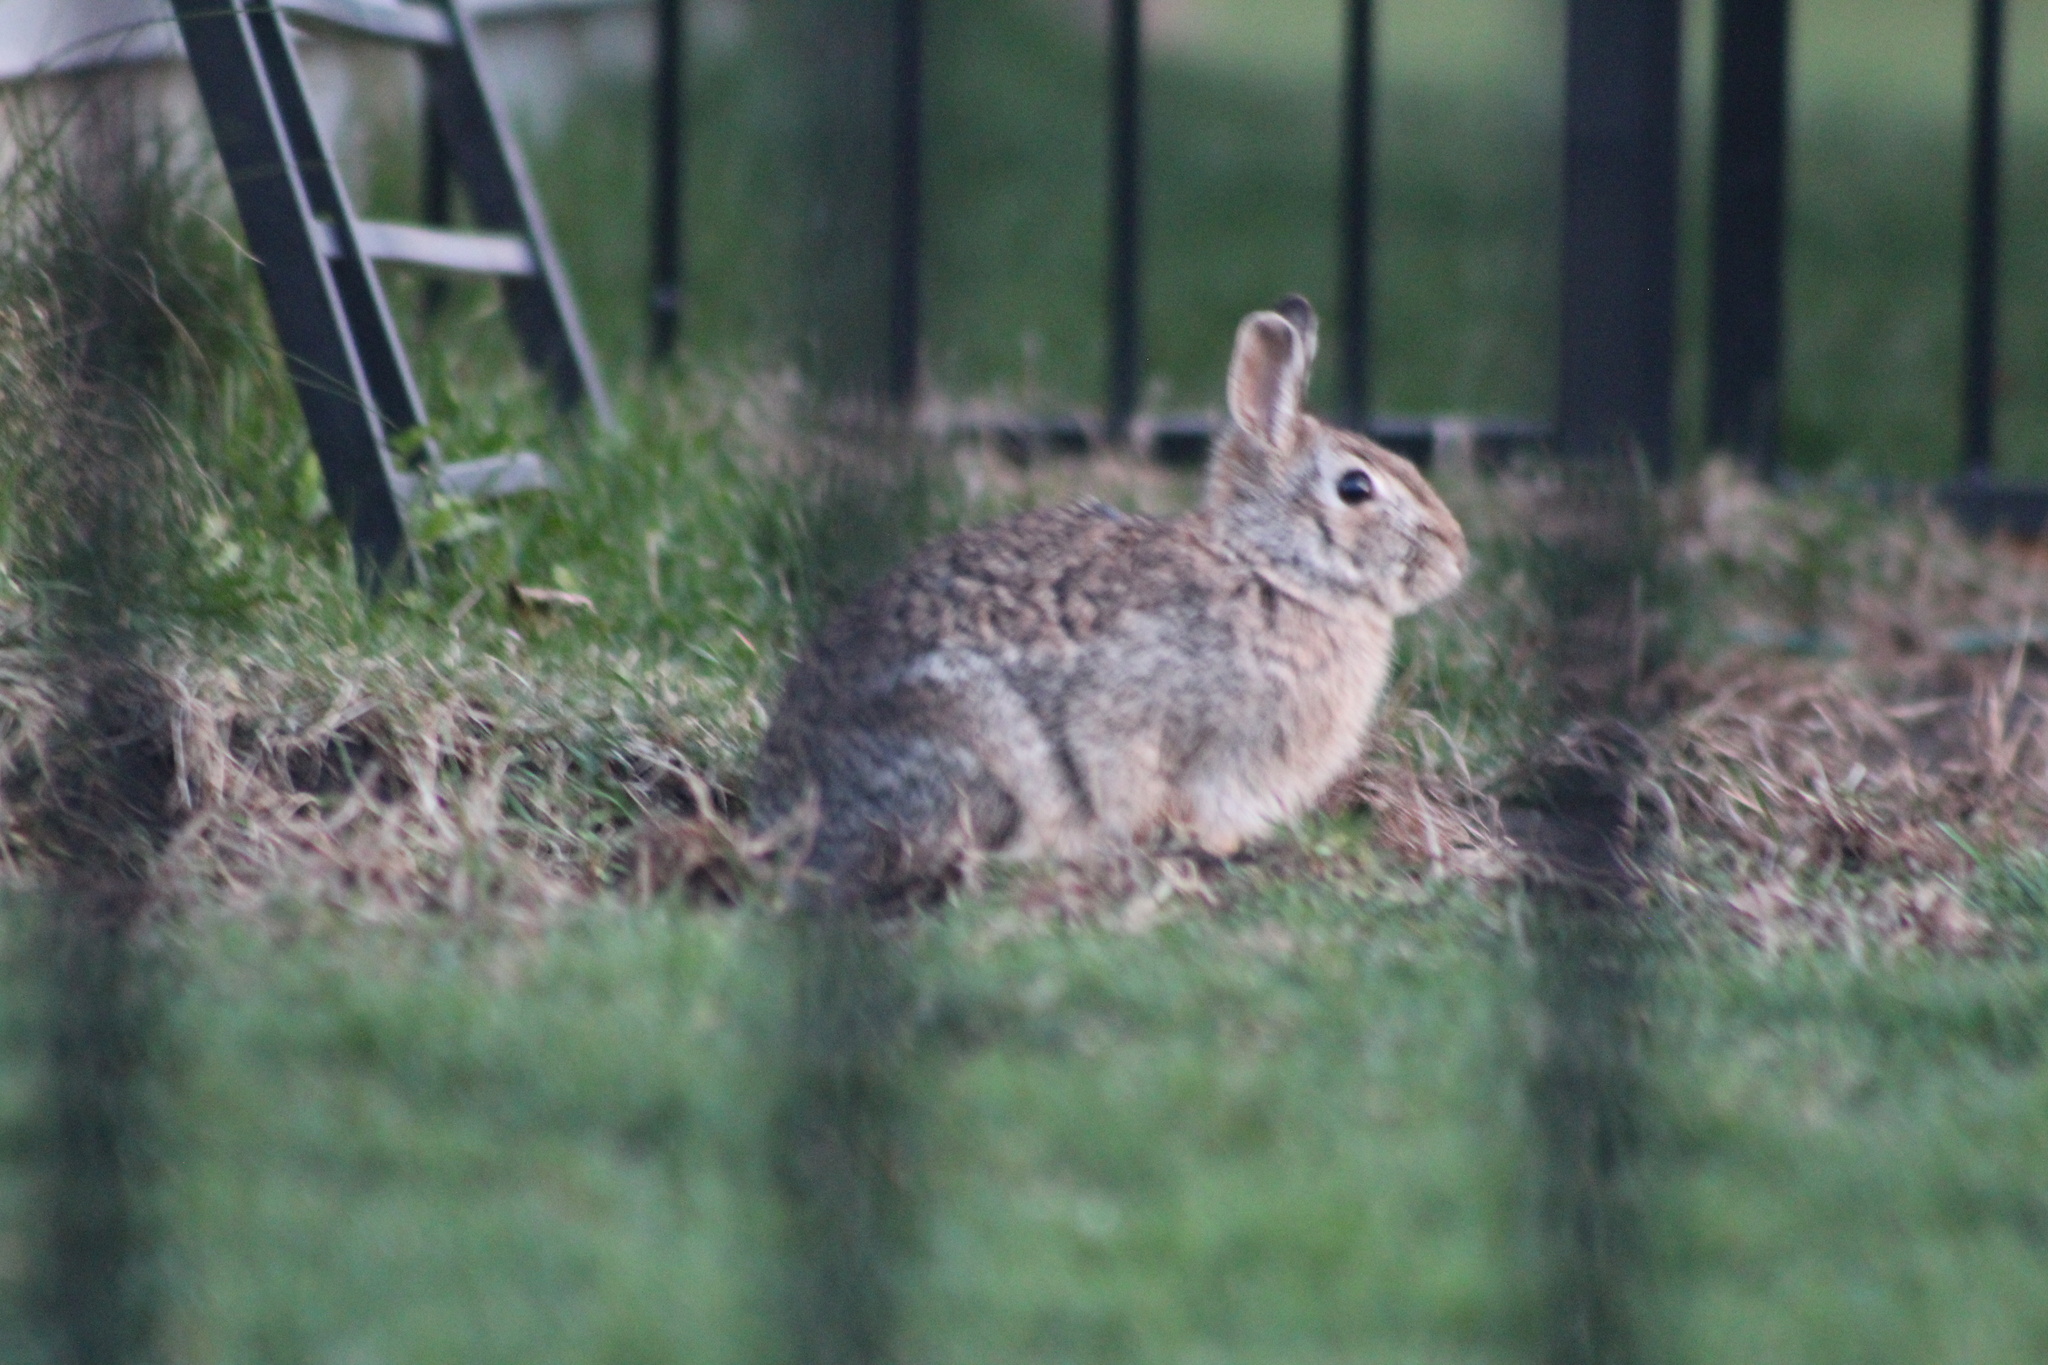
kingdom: Animalia
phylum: Chordata
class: Mammalia
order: Lagomorpha
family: Leporidae
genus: Sylvilagus
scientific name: Sylvilagus floridanus
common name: Eastern cottontail
